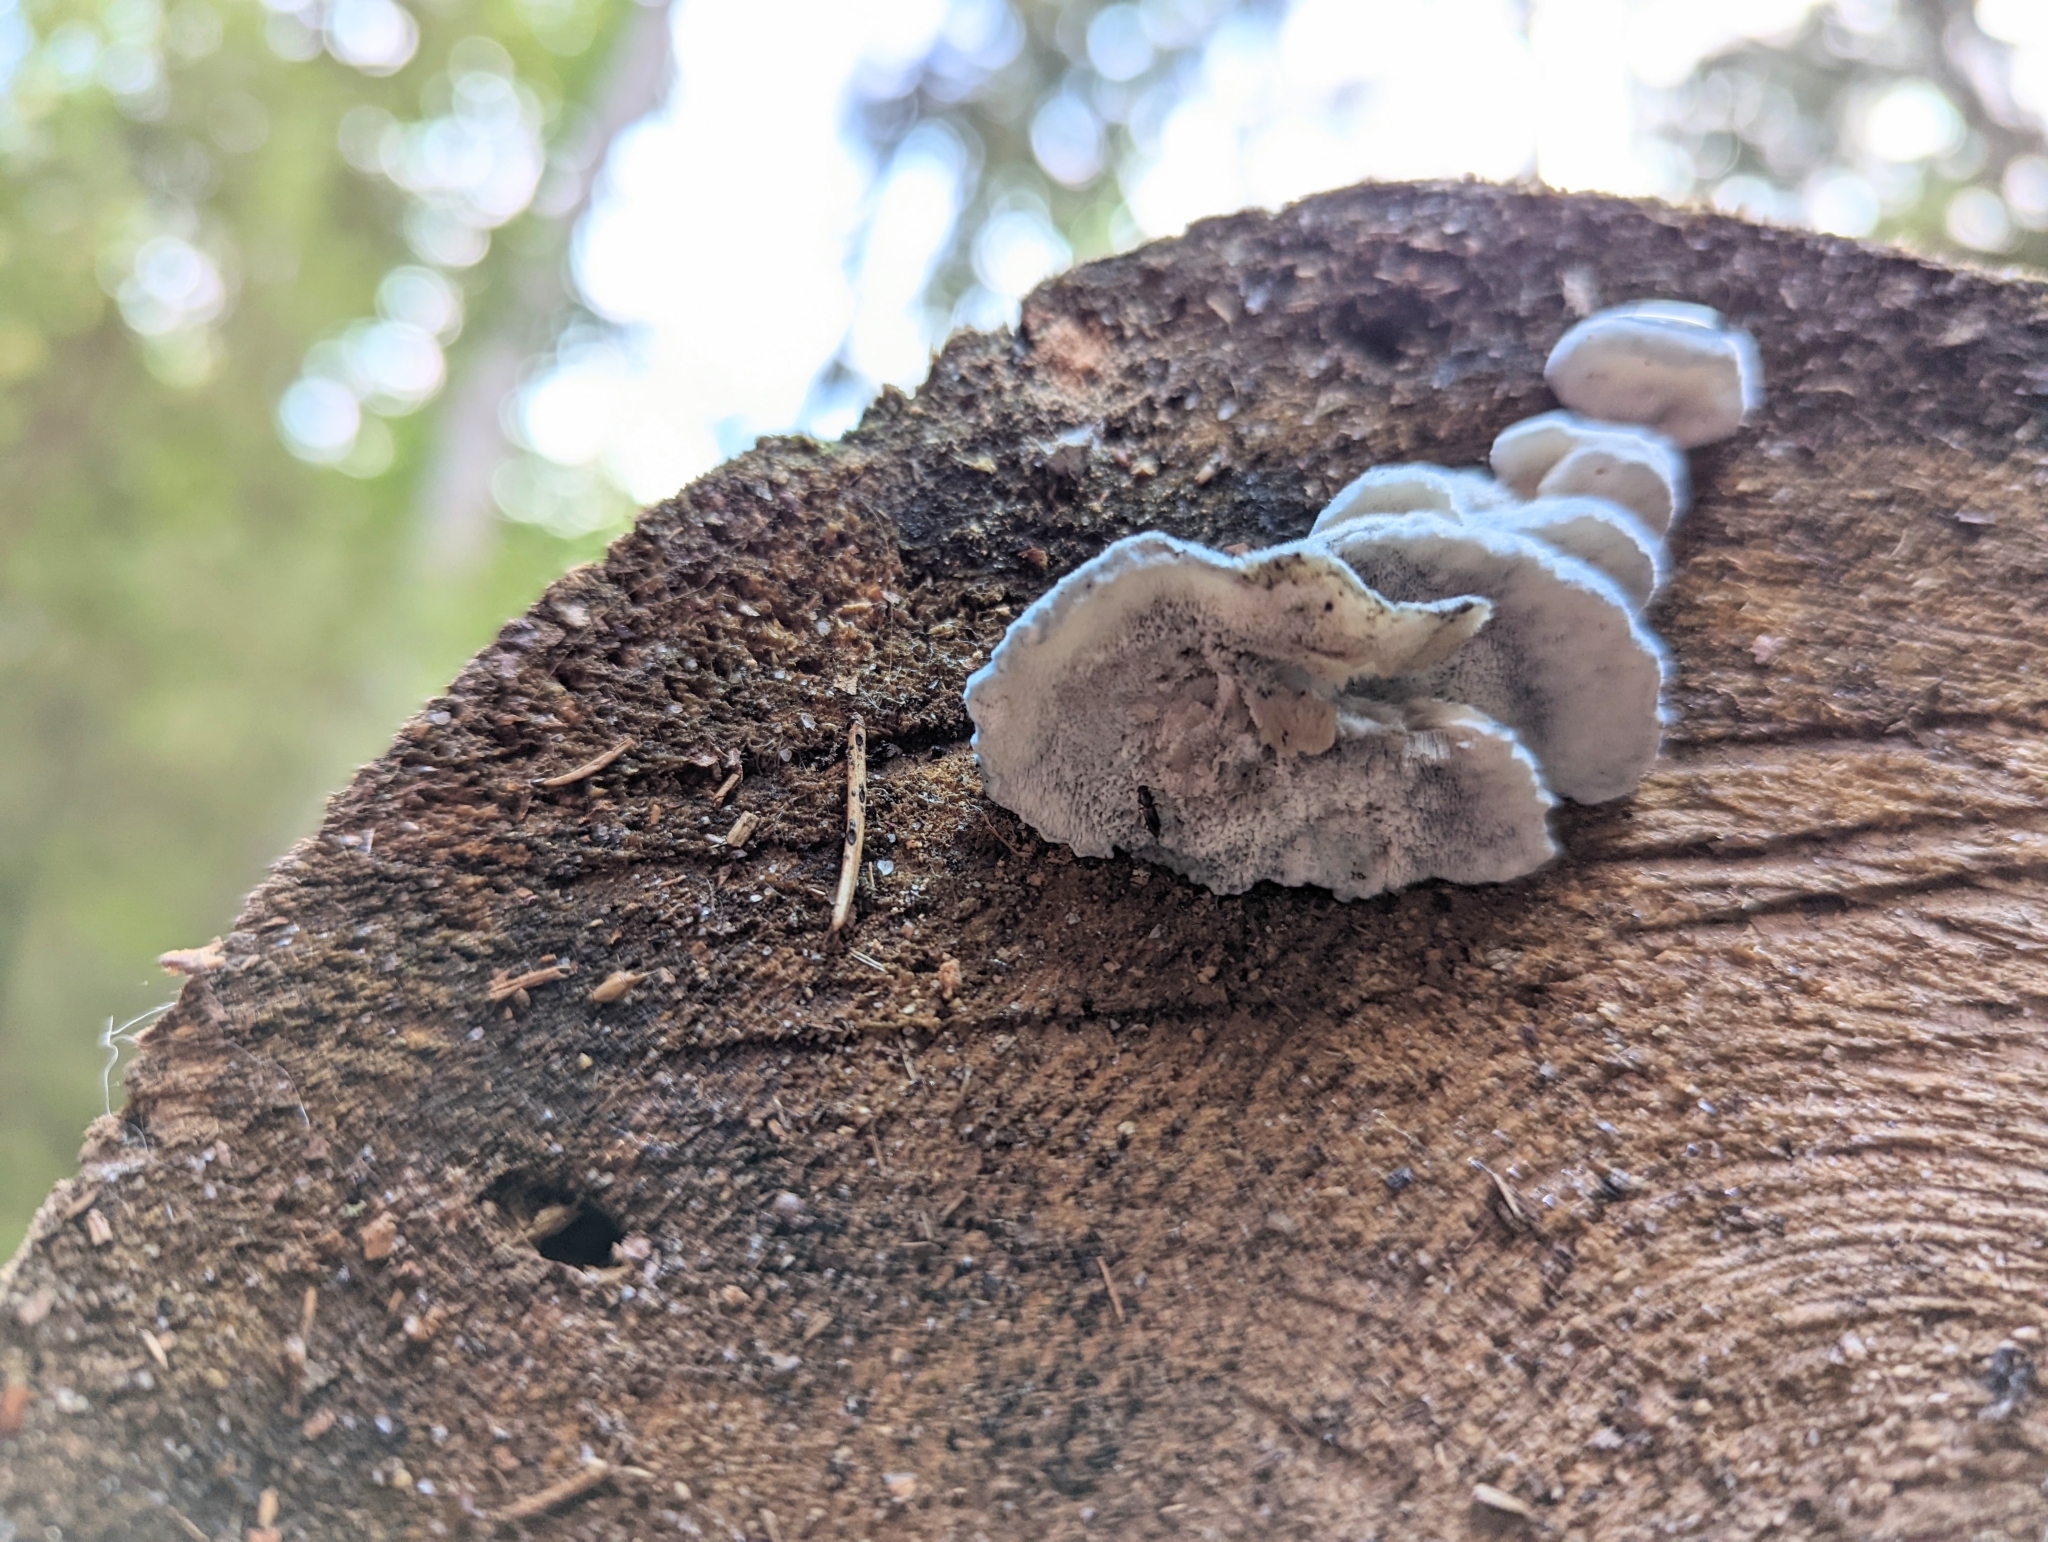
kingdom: Fungi
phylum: Basidiomycota
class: Agaricomycetes
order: Polyporales
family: Polyporaceae
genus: Cyanosporus
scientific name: Cyanosporus caesius
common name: Blue cheese polypore
